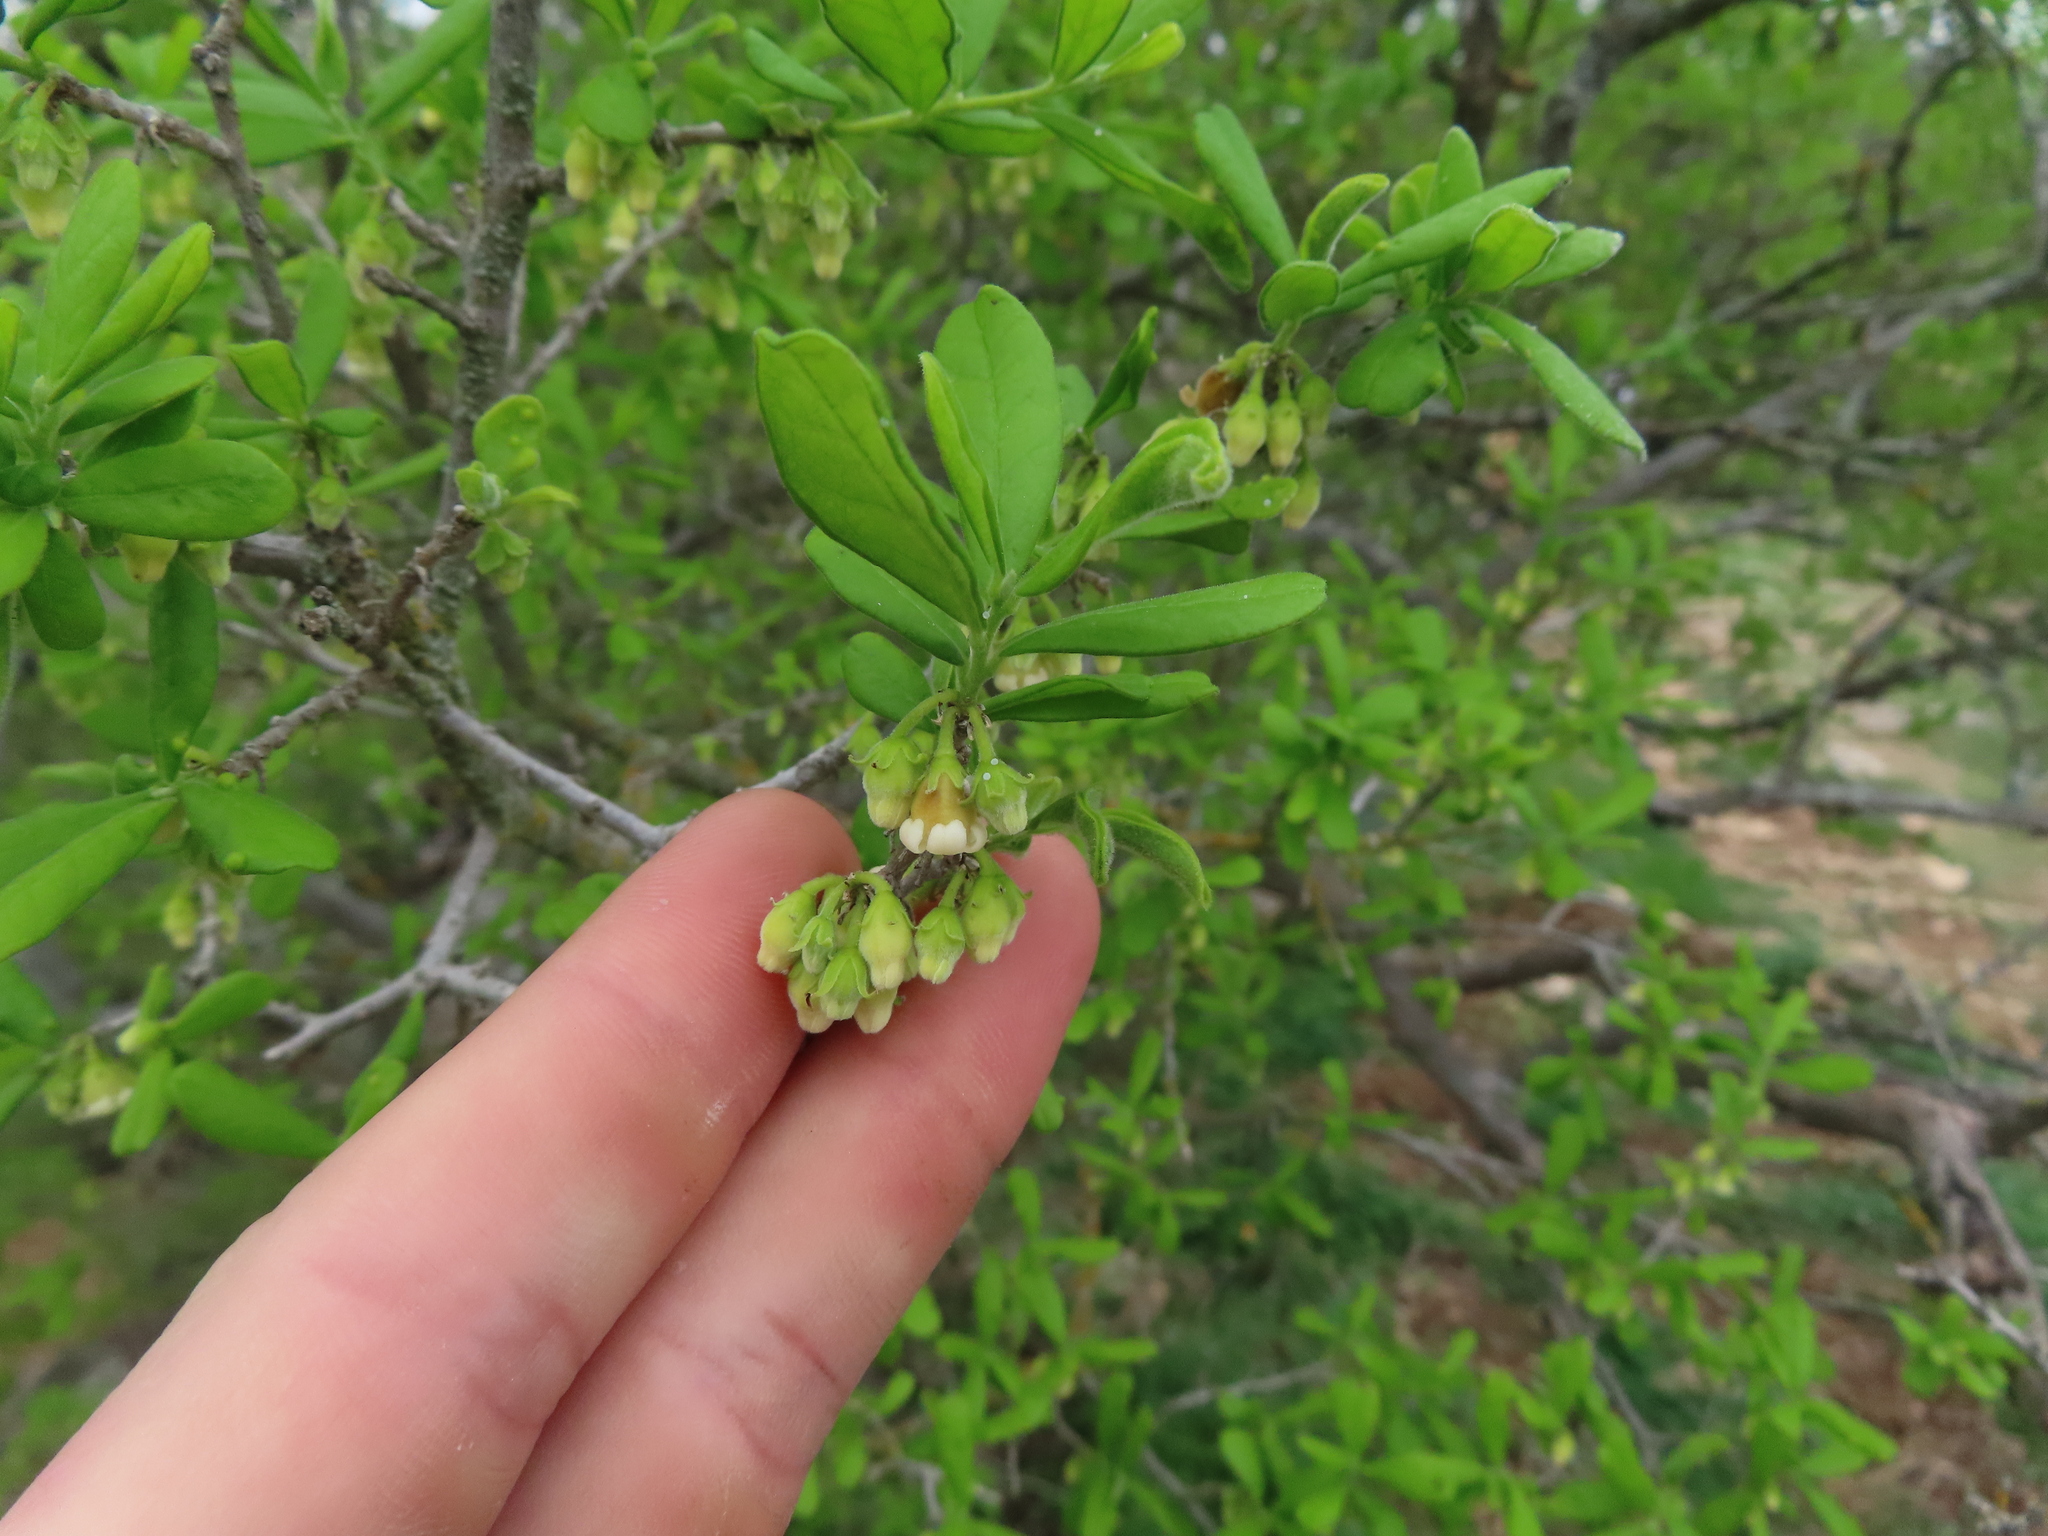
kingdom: Plantae
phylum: Tracheophyta
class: Magnoliopsida
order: Ericales
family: Ebenaceae
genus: Diospyros
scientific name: Diospyros texana
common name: Texas persimmon
